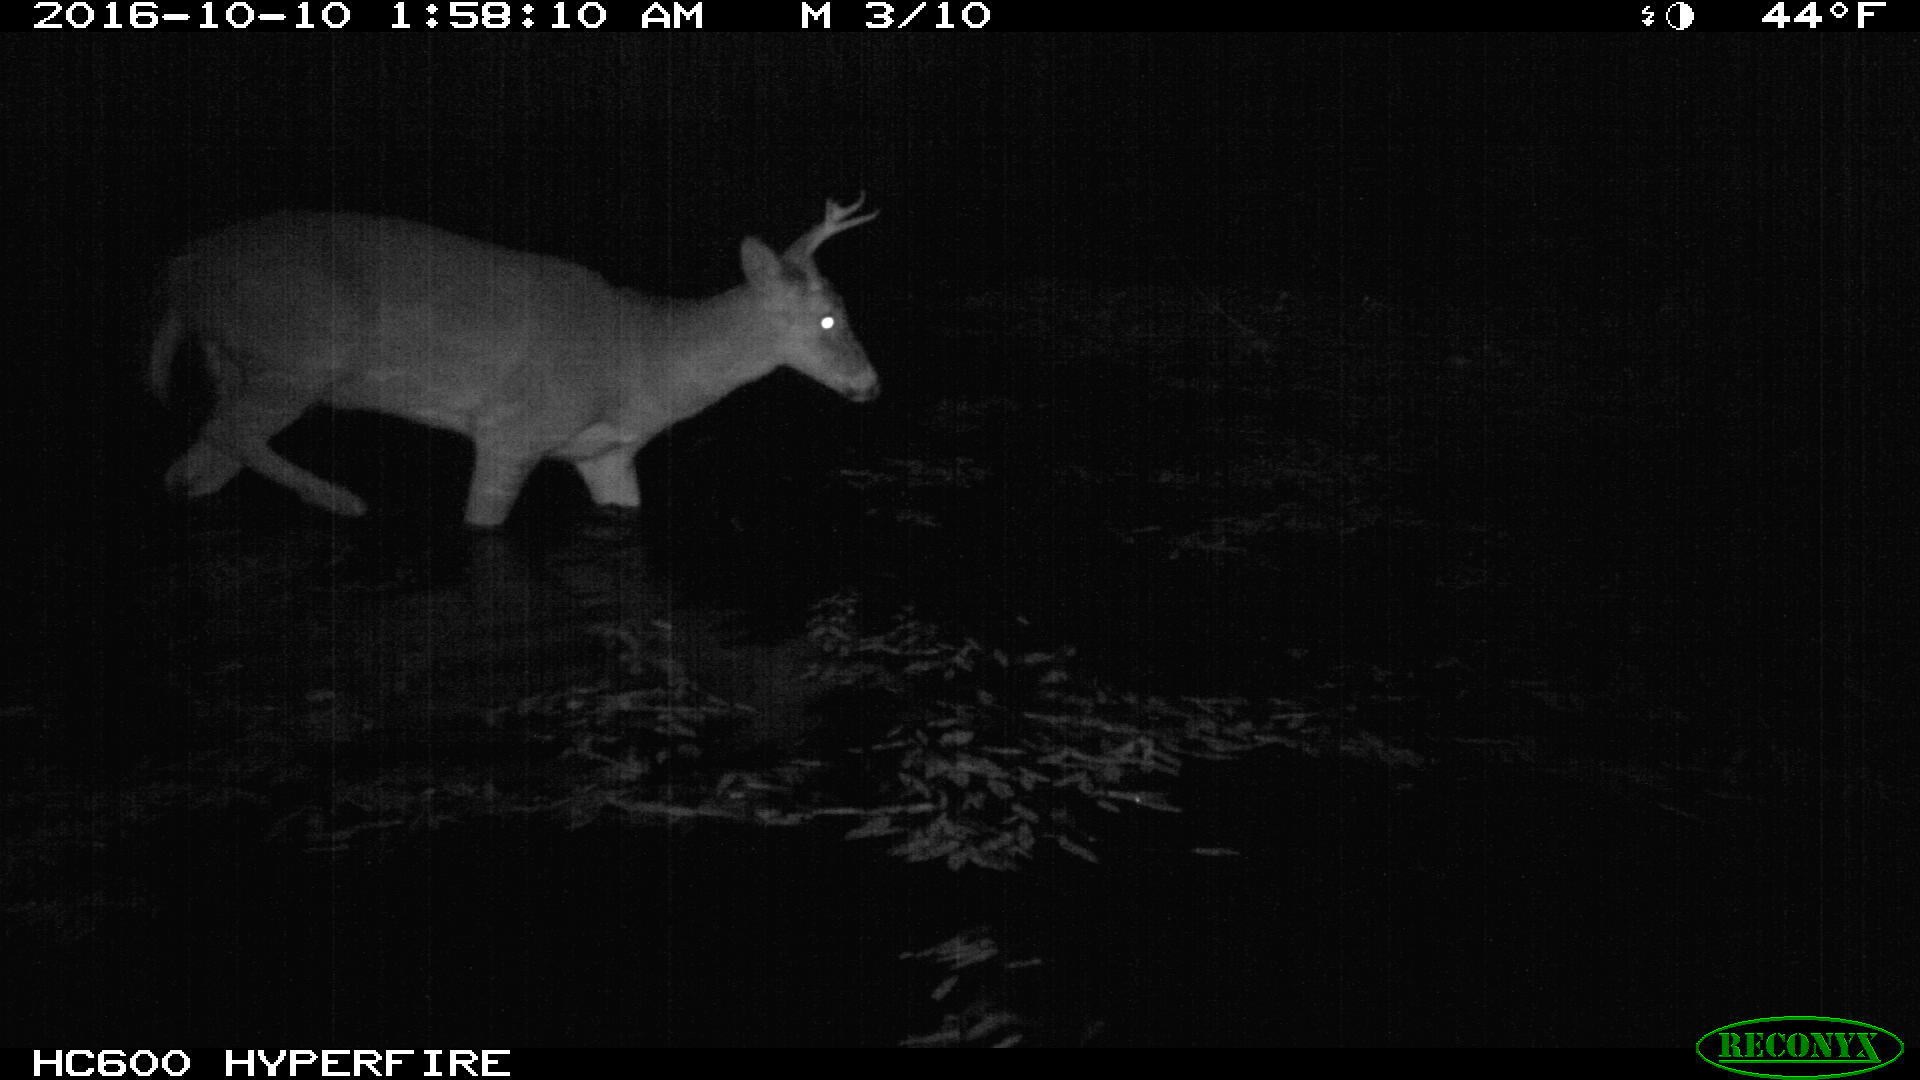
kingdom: Animalia
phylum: Chordata
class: Mammalia
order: Artiodactyla
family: Cervidae
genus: Odocoileus
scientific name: Odocoileus virginianus
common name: White-tailed deer
